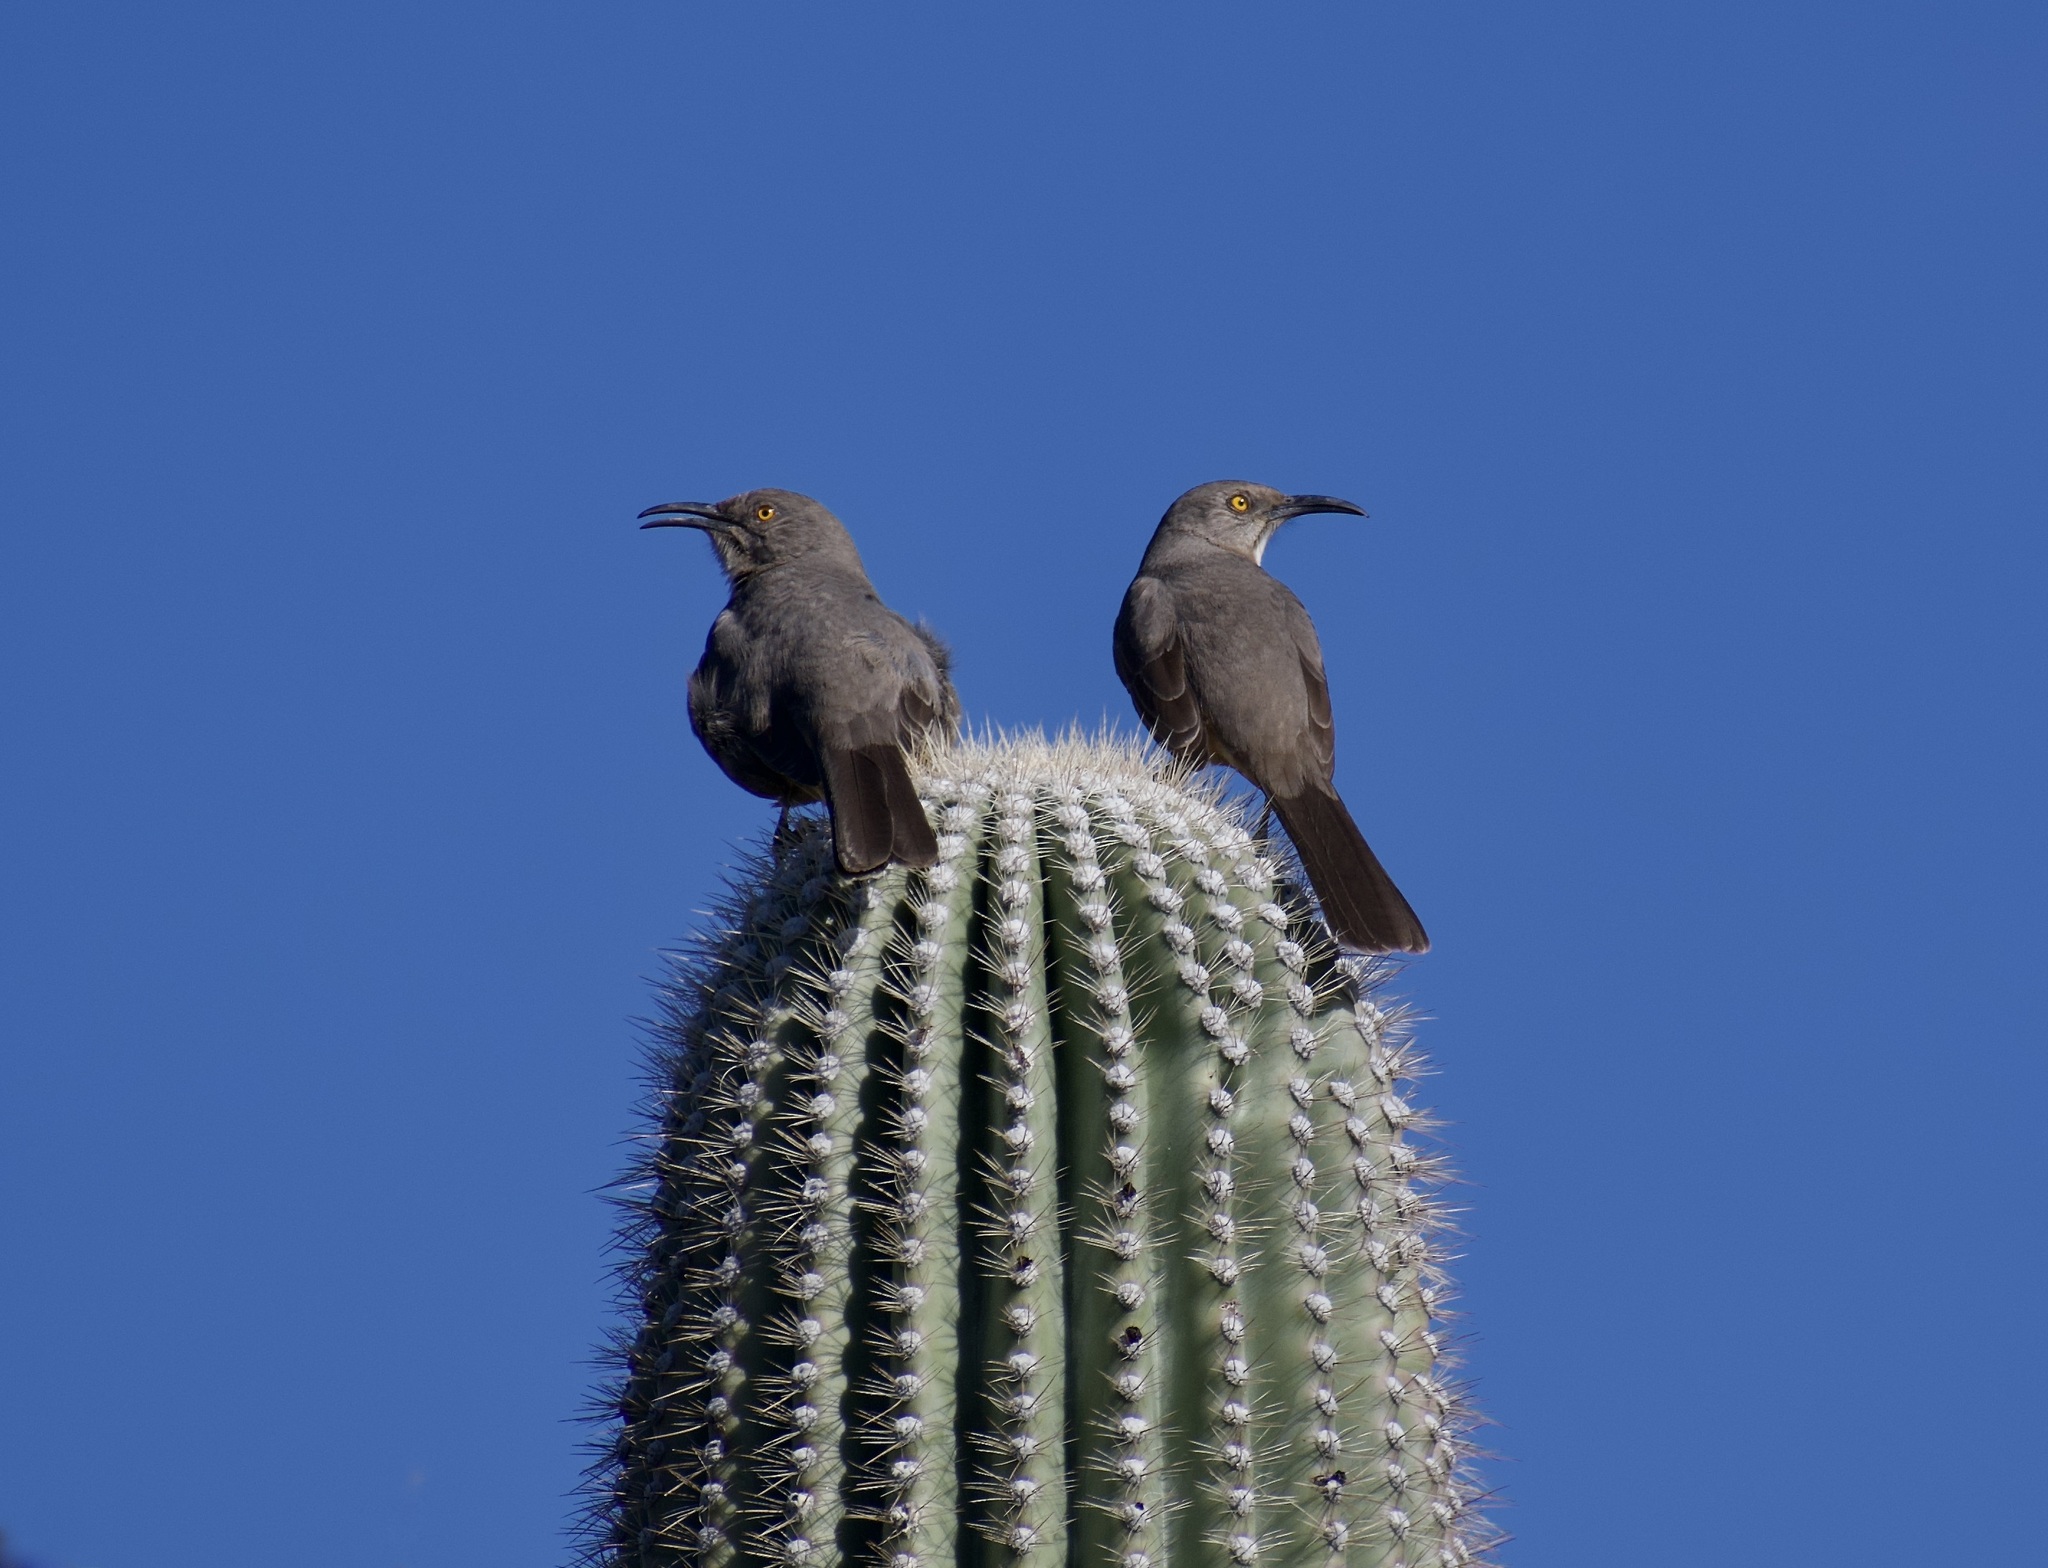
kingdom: Animalia
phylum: Chordata
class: Aves
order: Passeriformes
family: Mimidae
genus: Toxostoma
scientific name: Toxostoma curvirostre
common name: Curve-billed thrasher
